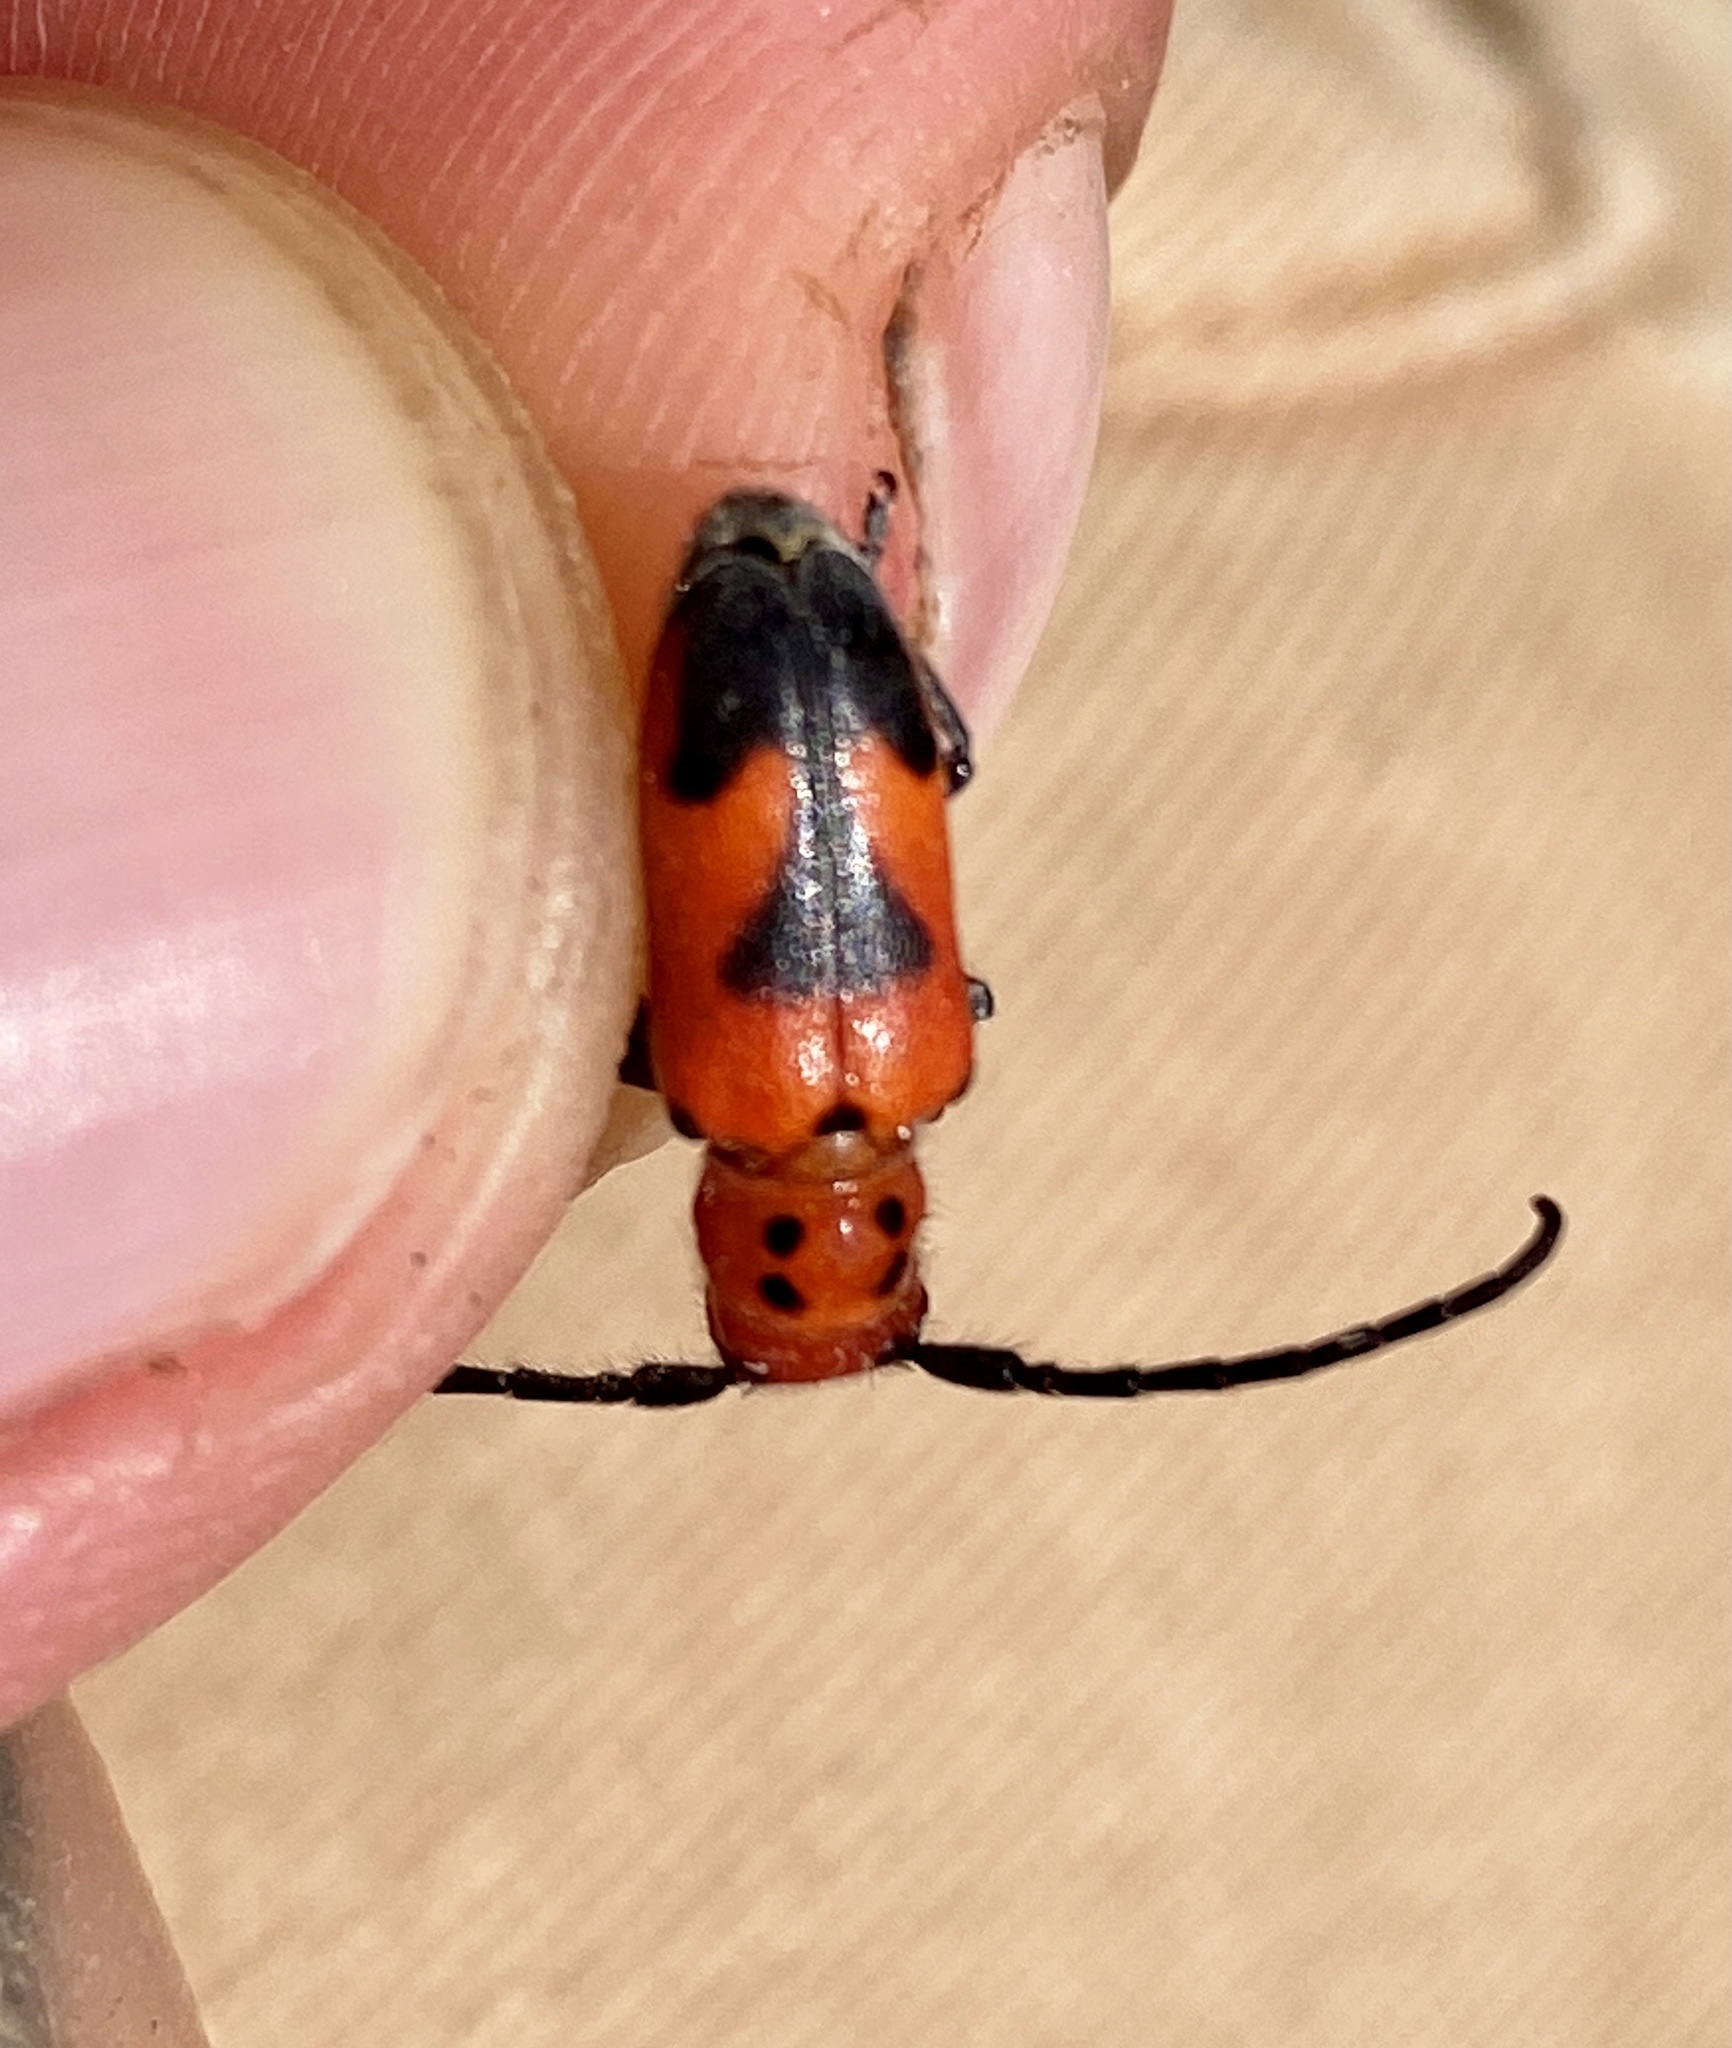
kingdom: Animalia
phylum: Arthropoda
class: Insecta
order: Coleoptera
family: Cerambycidae
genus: Tetraopes
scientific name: Tetraopes melanurus
